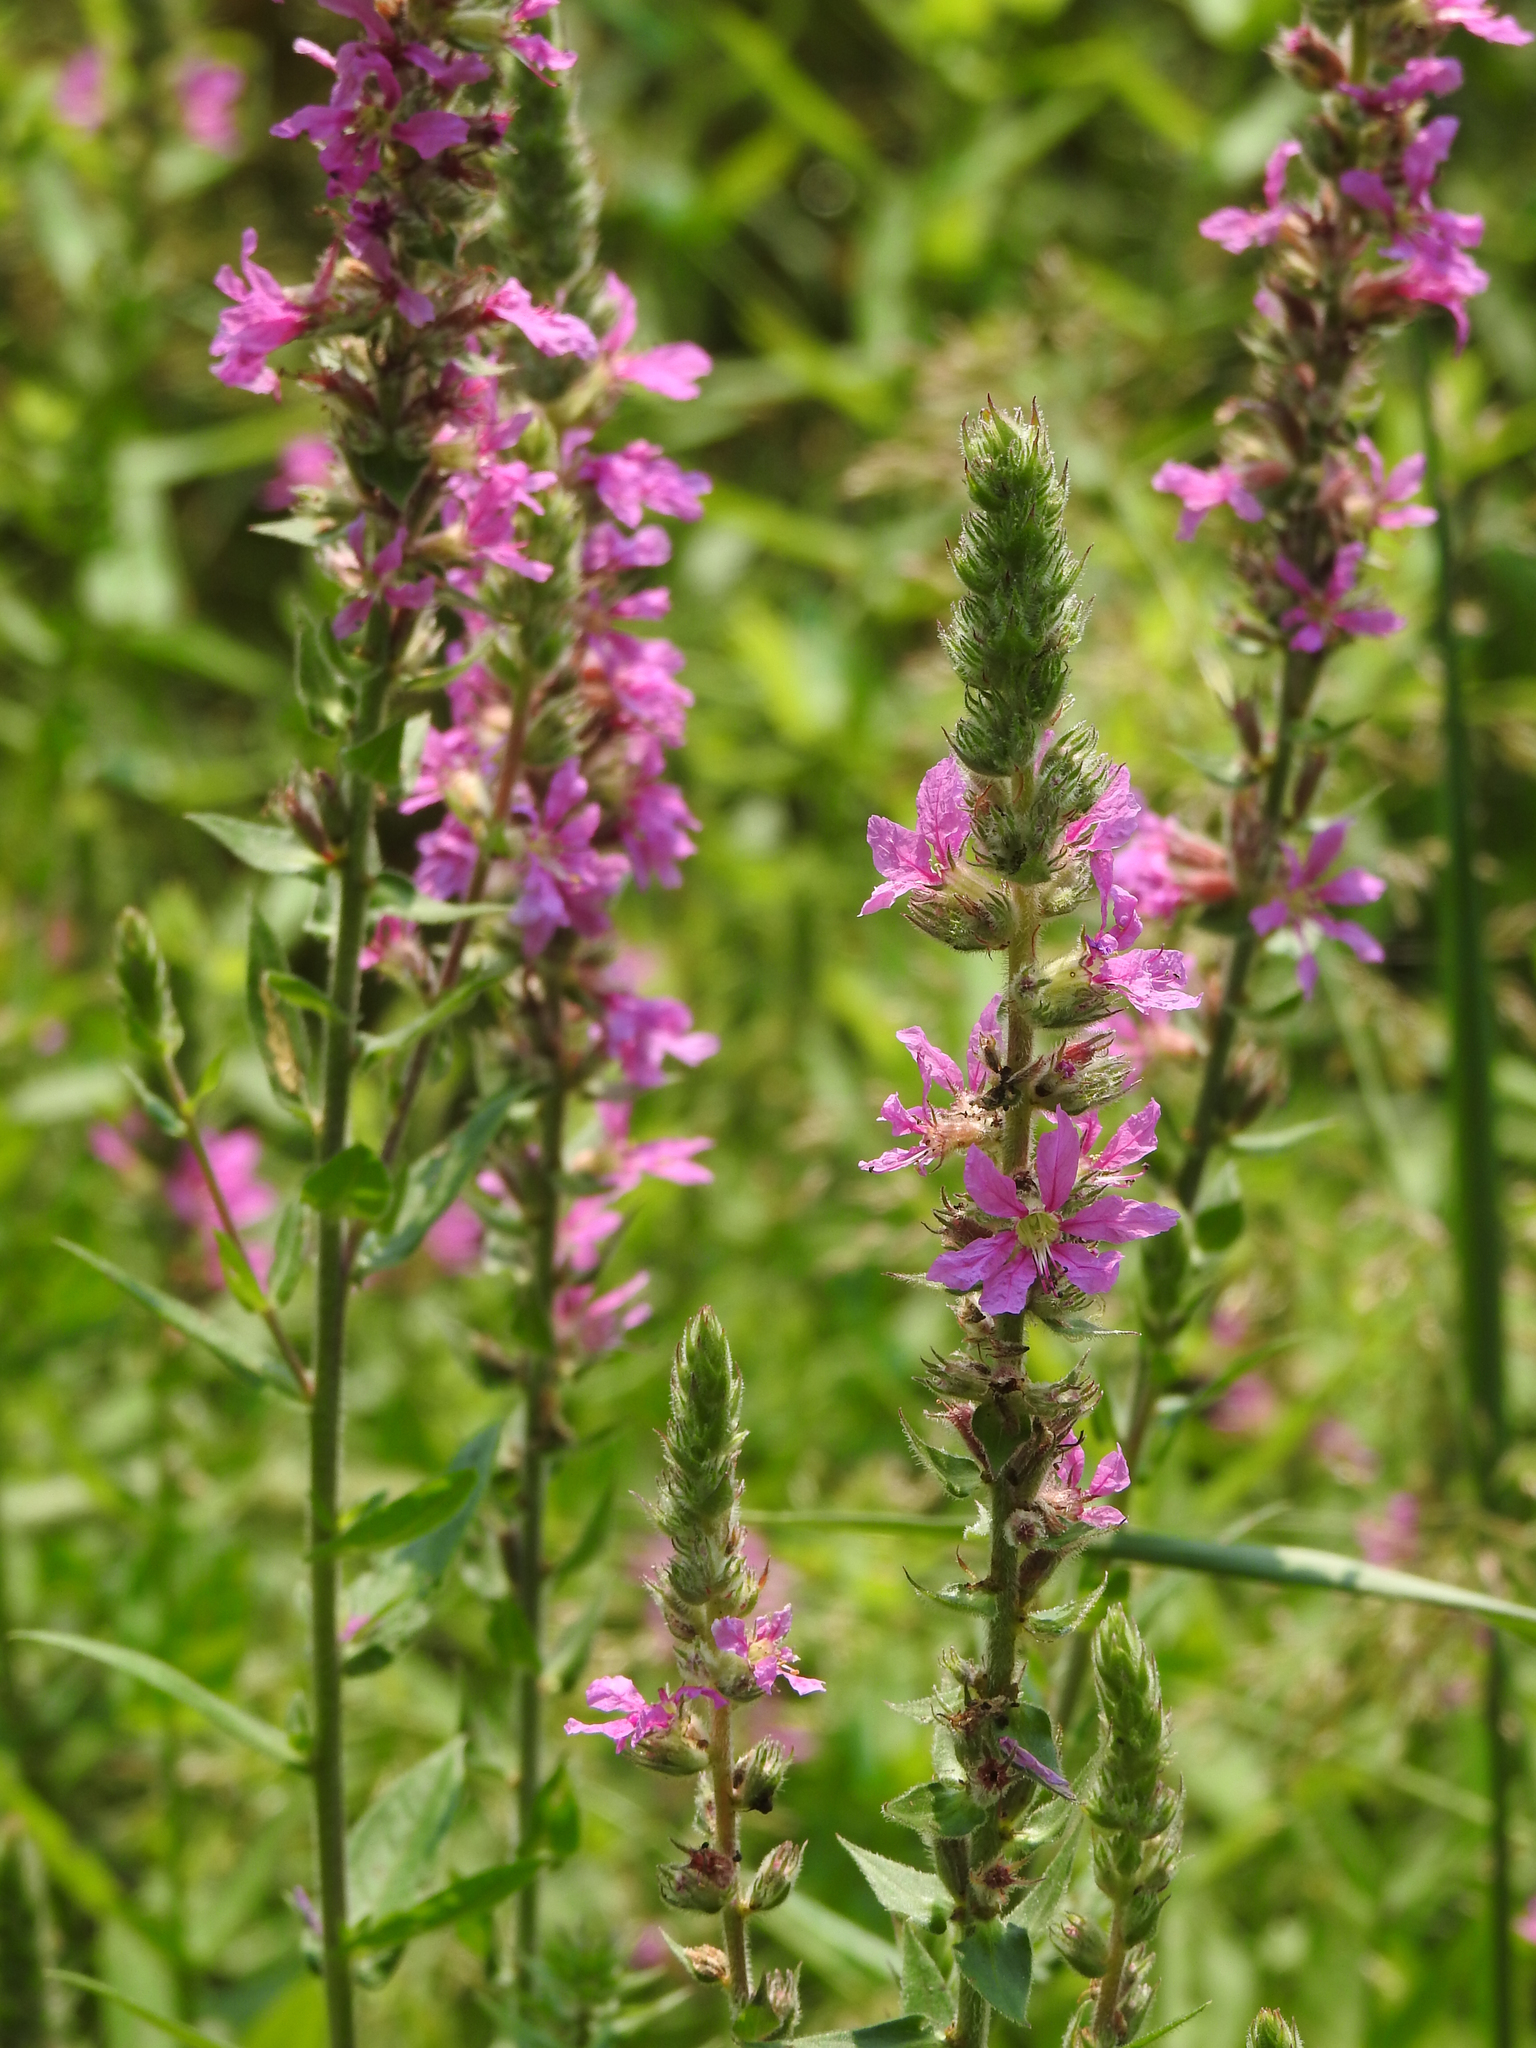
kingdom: Plantae
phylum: Tracheophyta
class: Magnoliopsida
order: Myrtales
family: Lythraceae
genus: Lythrum
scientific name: Lythrum salicaria
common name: Purple loosestrife
